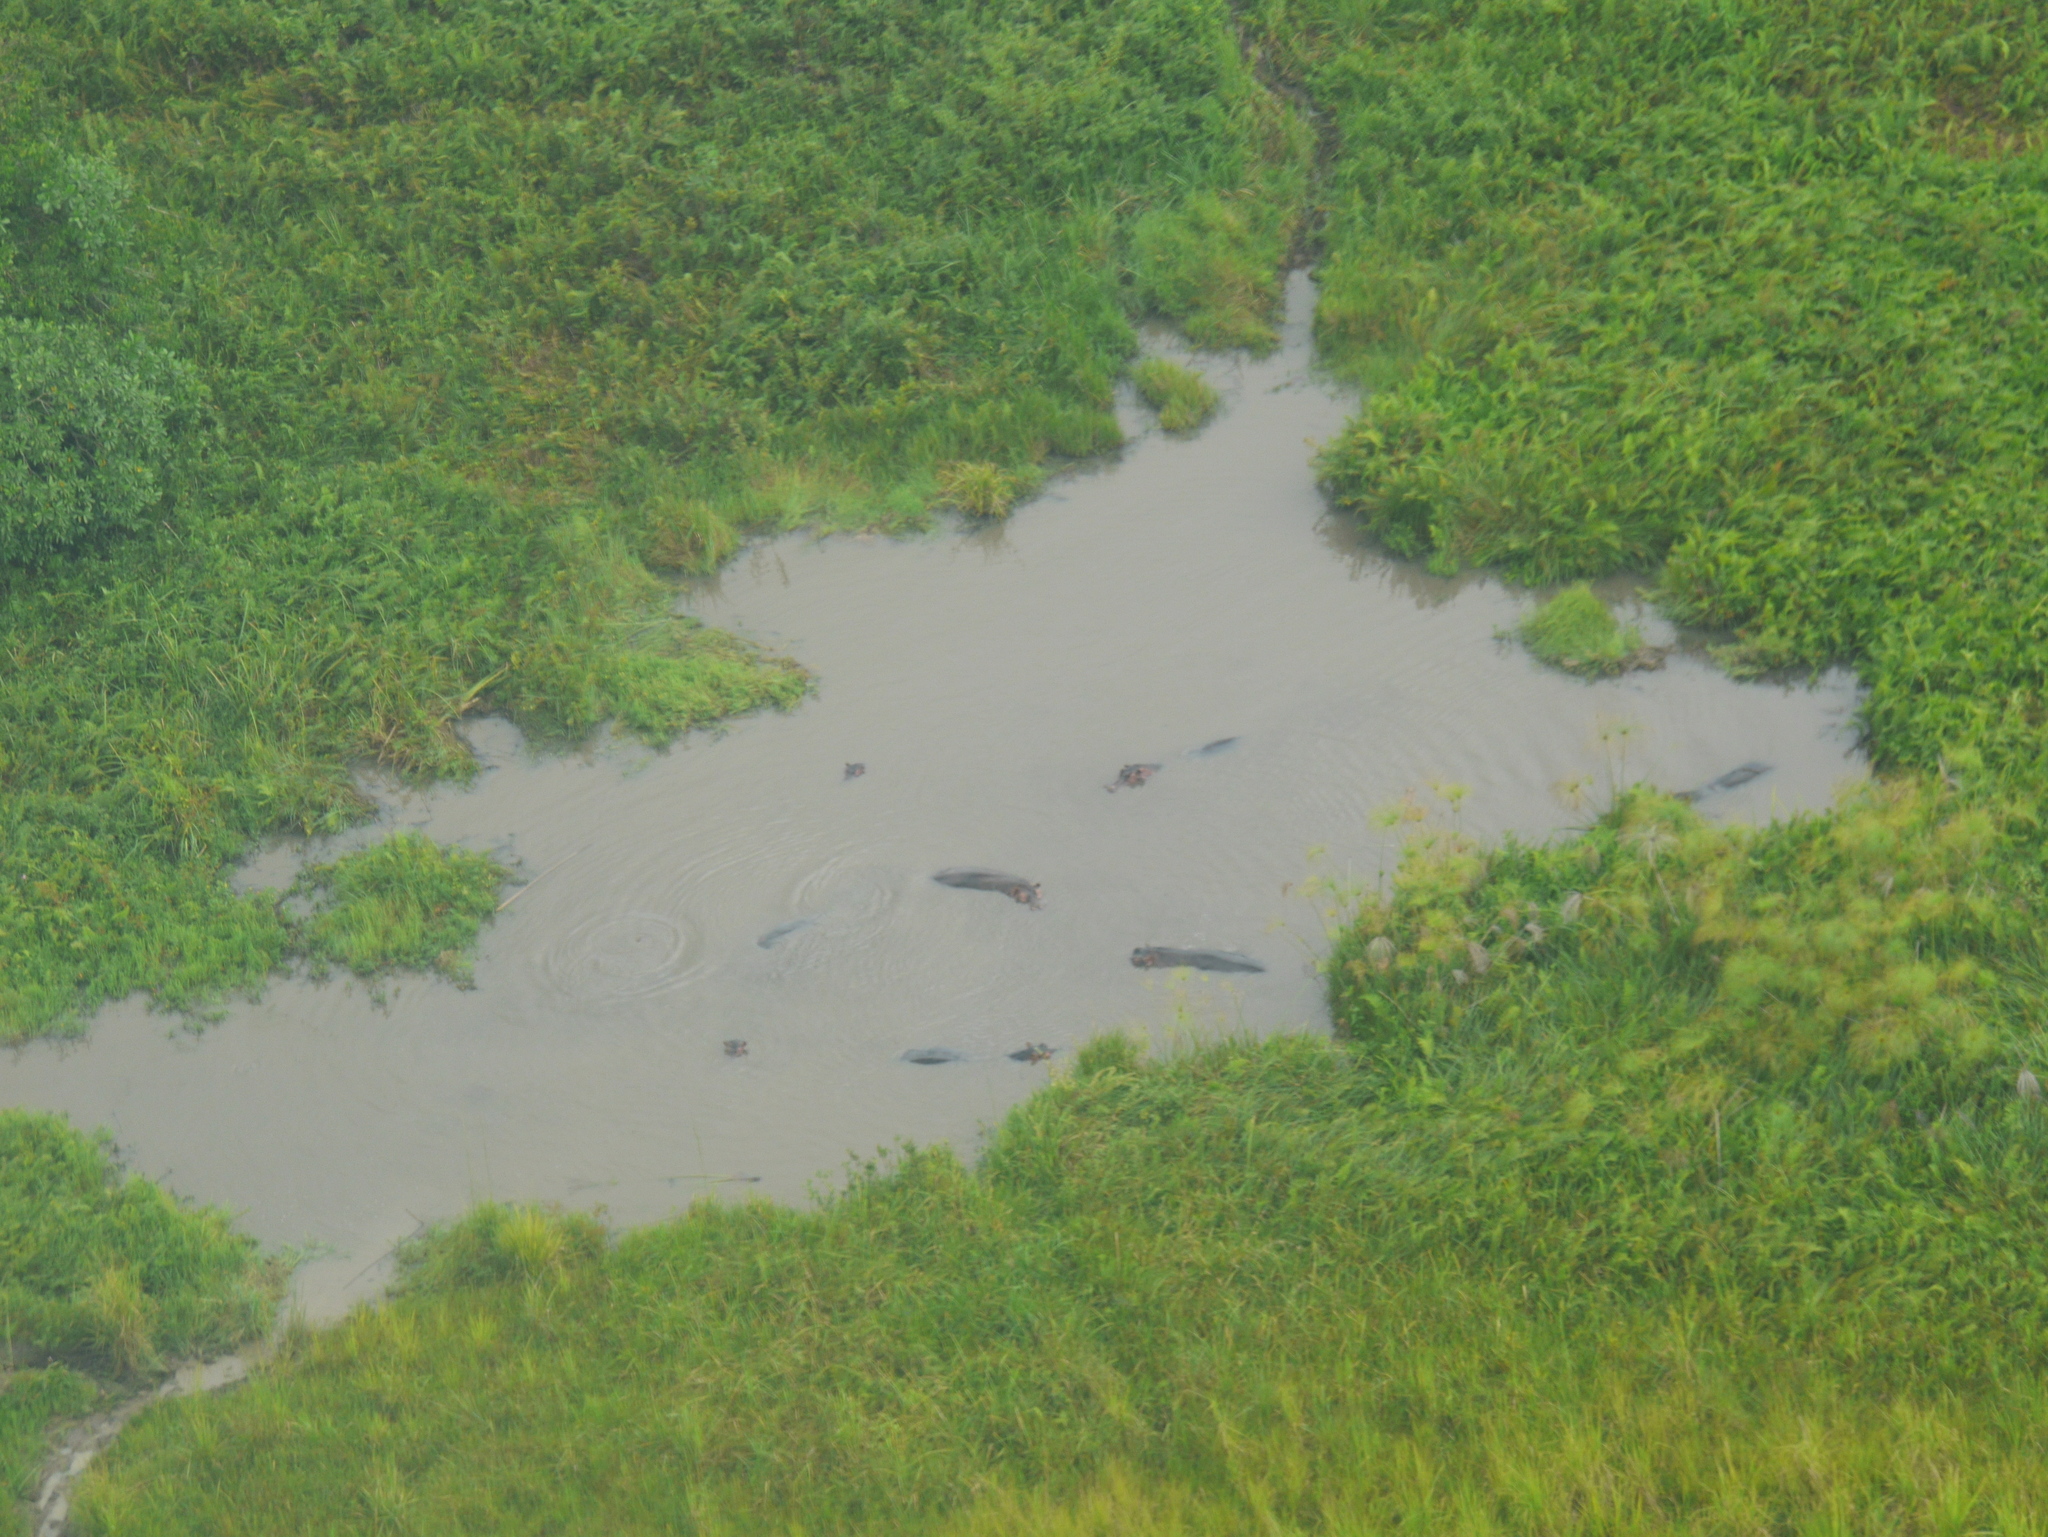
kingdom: Animalia
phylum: Chordata
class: Mammalia
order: Artiodactyla
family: Hippopotamidae
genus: Hippopotamus
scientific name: Hippopotamus amphibius
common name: Common hippopotamus
